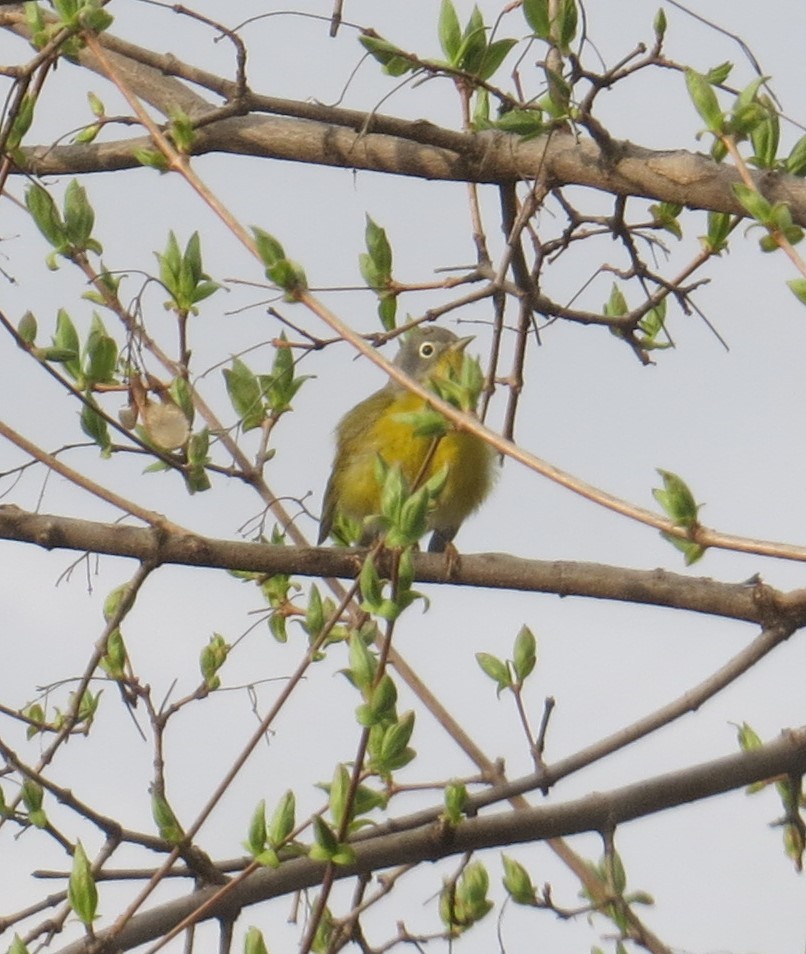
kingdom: Animalia
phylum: Chordata
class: Aves
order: Passeriformes
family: Parulidae
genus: Leiothlypis
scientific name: Leiothlypis ruficapilla
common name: Nashville warbler
